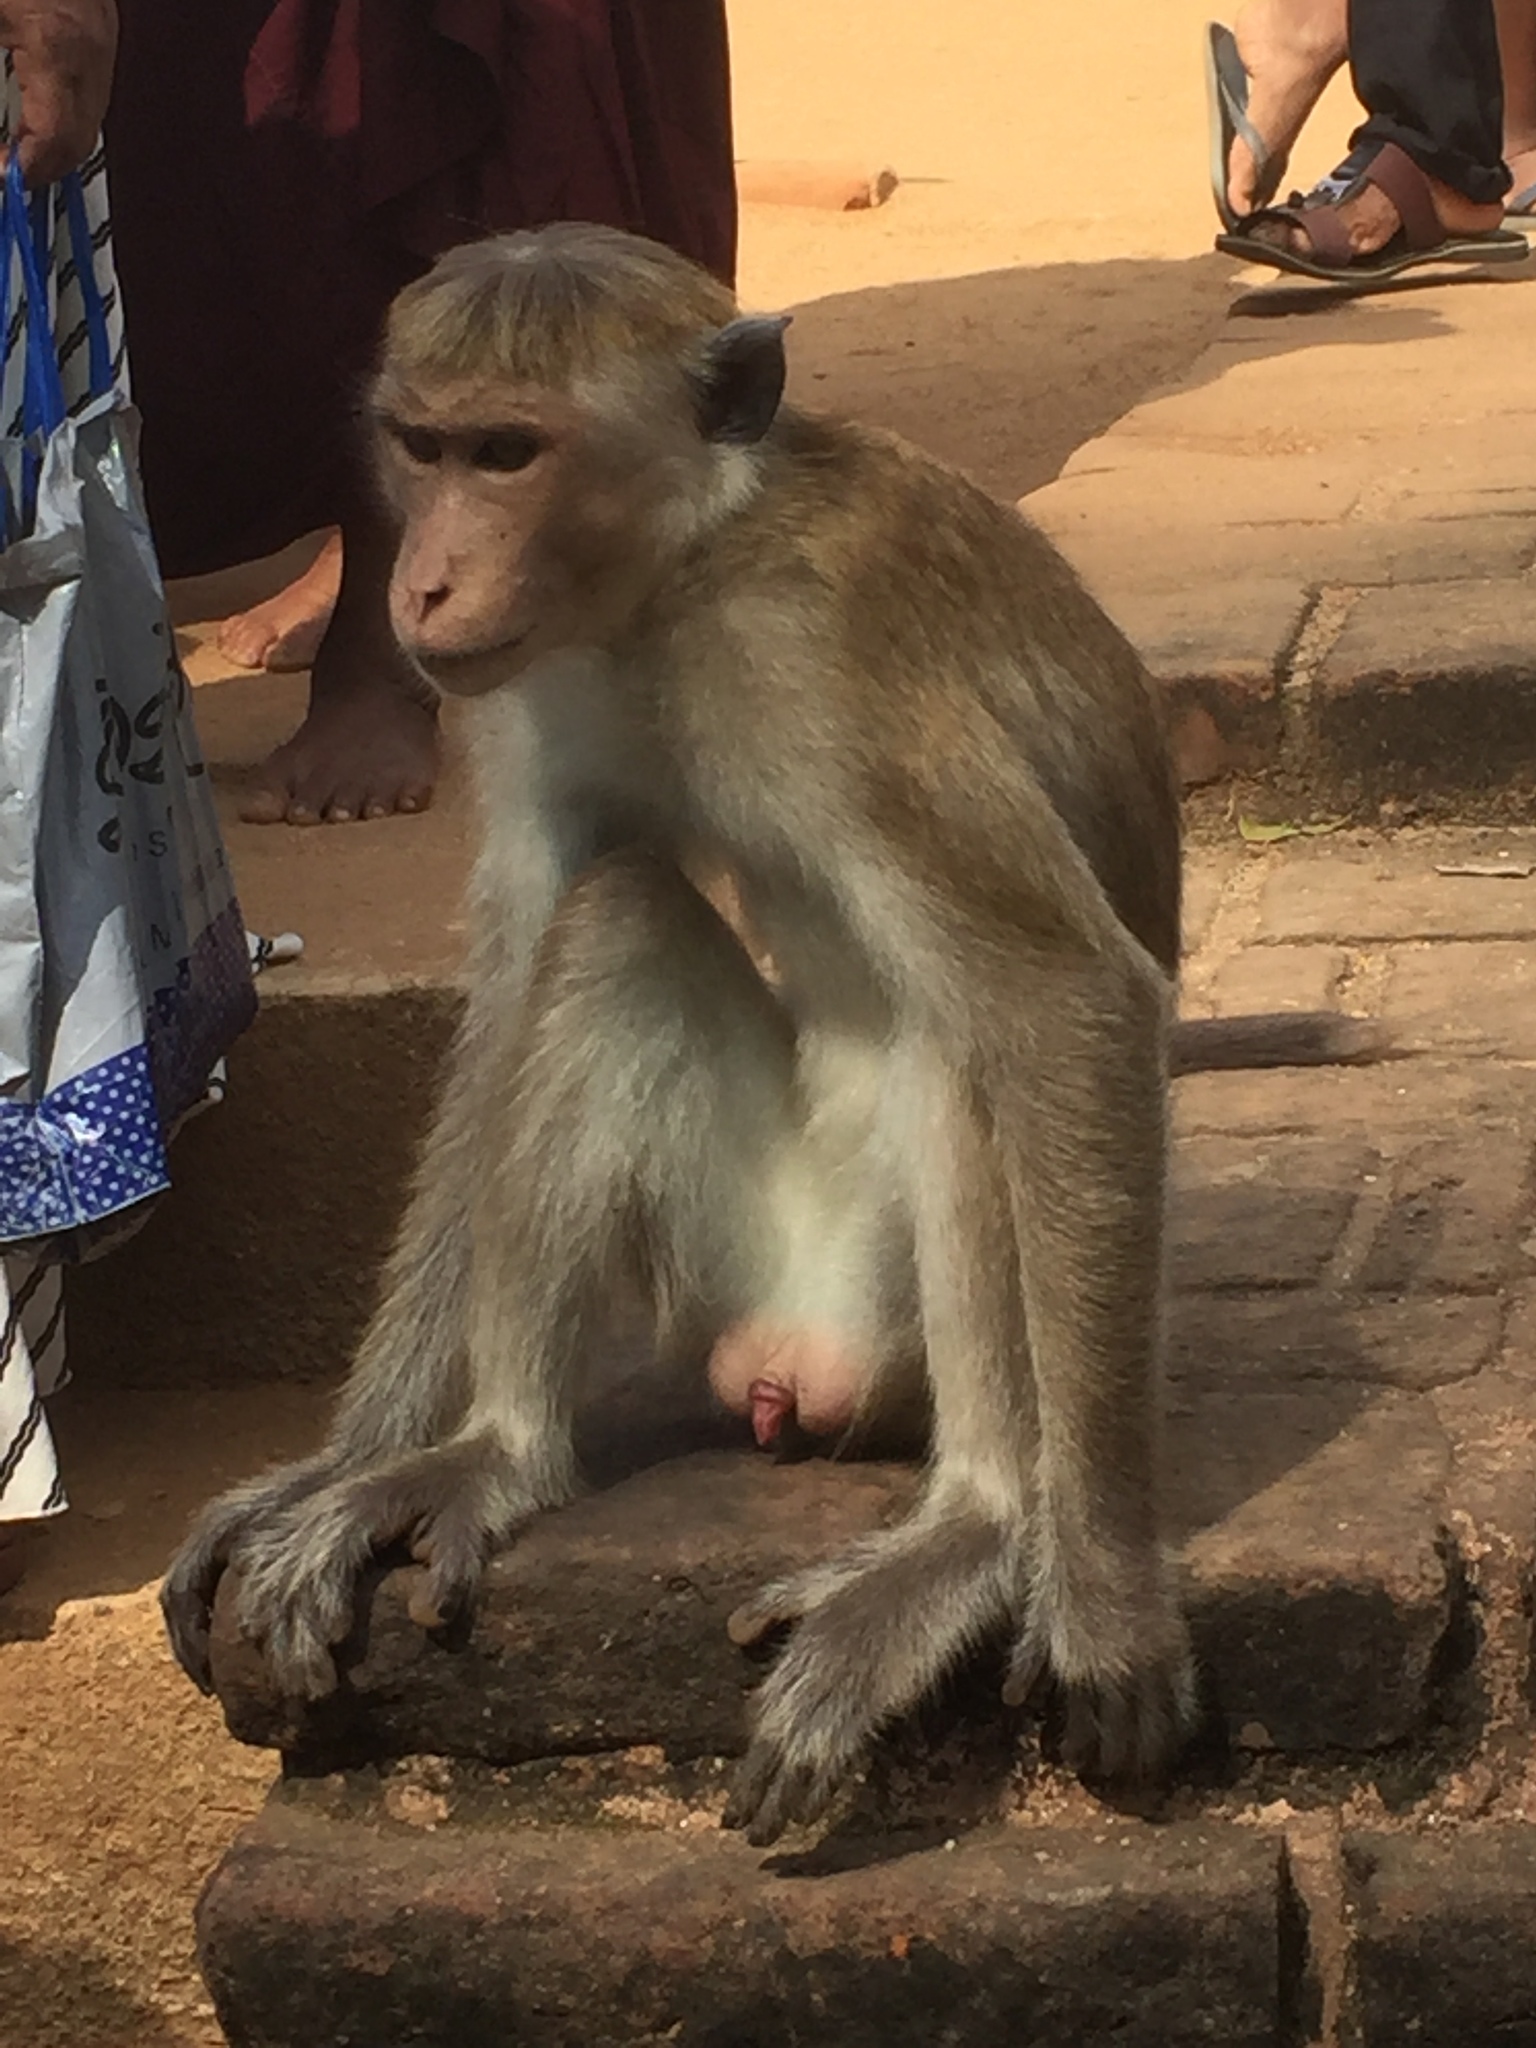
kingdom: Animalia
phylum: Chordata
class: Mammalia
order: Primates
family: Cercopithecidae
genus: Macaca
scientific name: Macaca sinica
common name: Toque macaque
